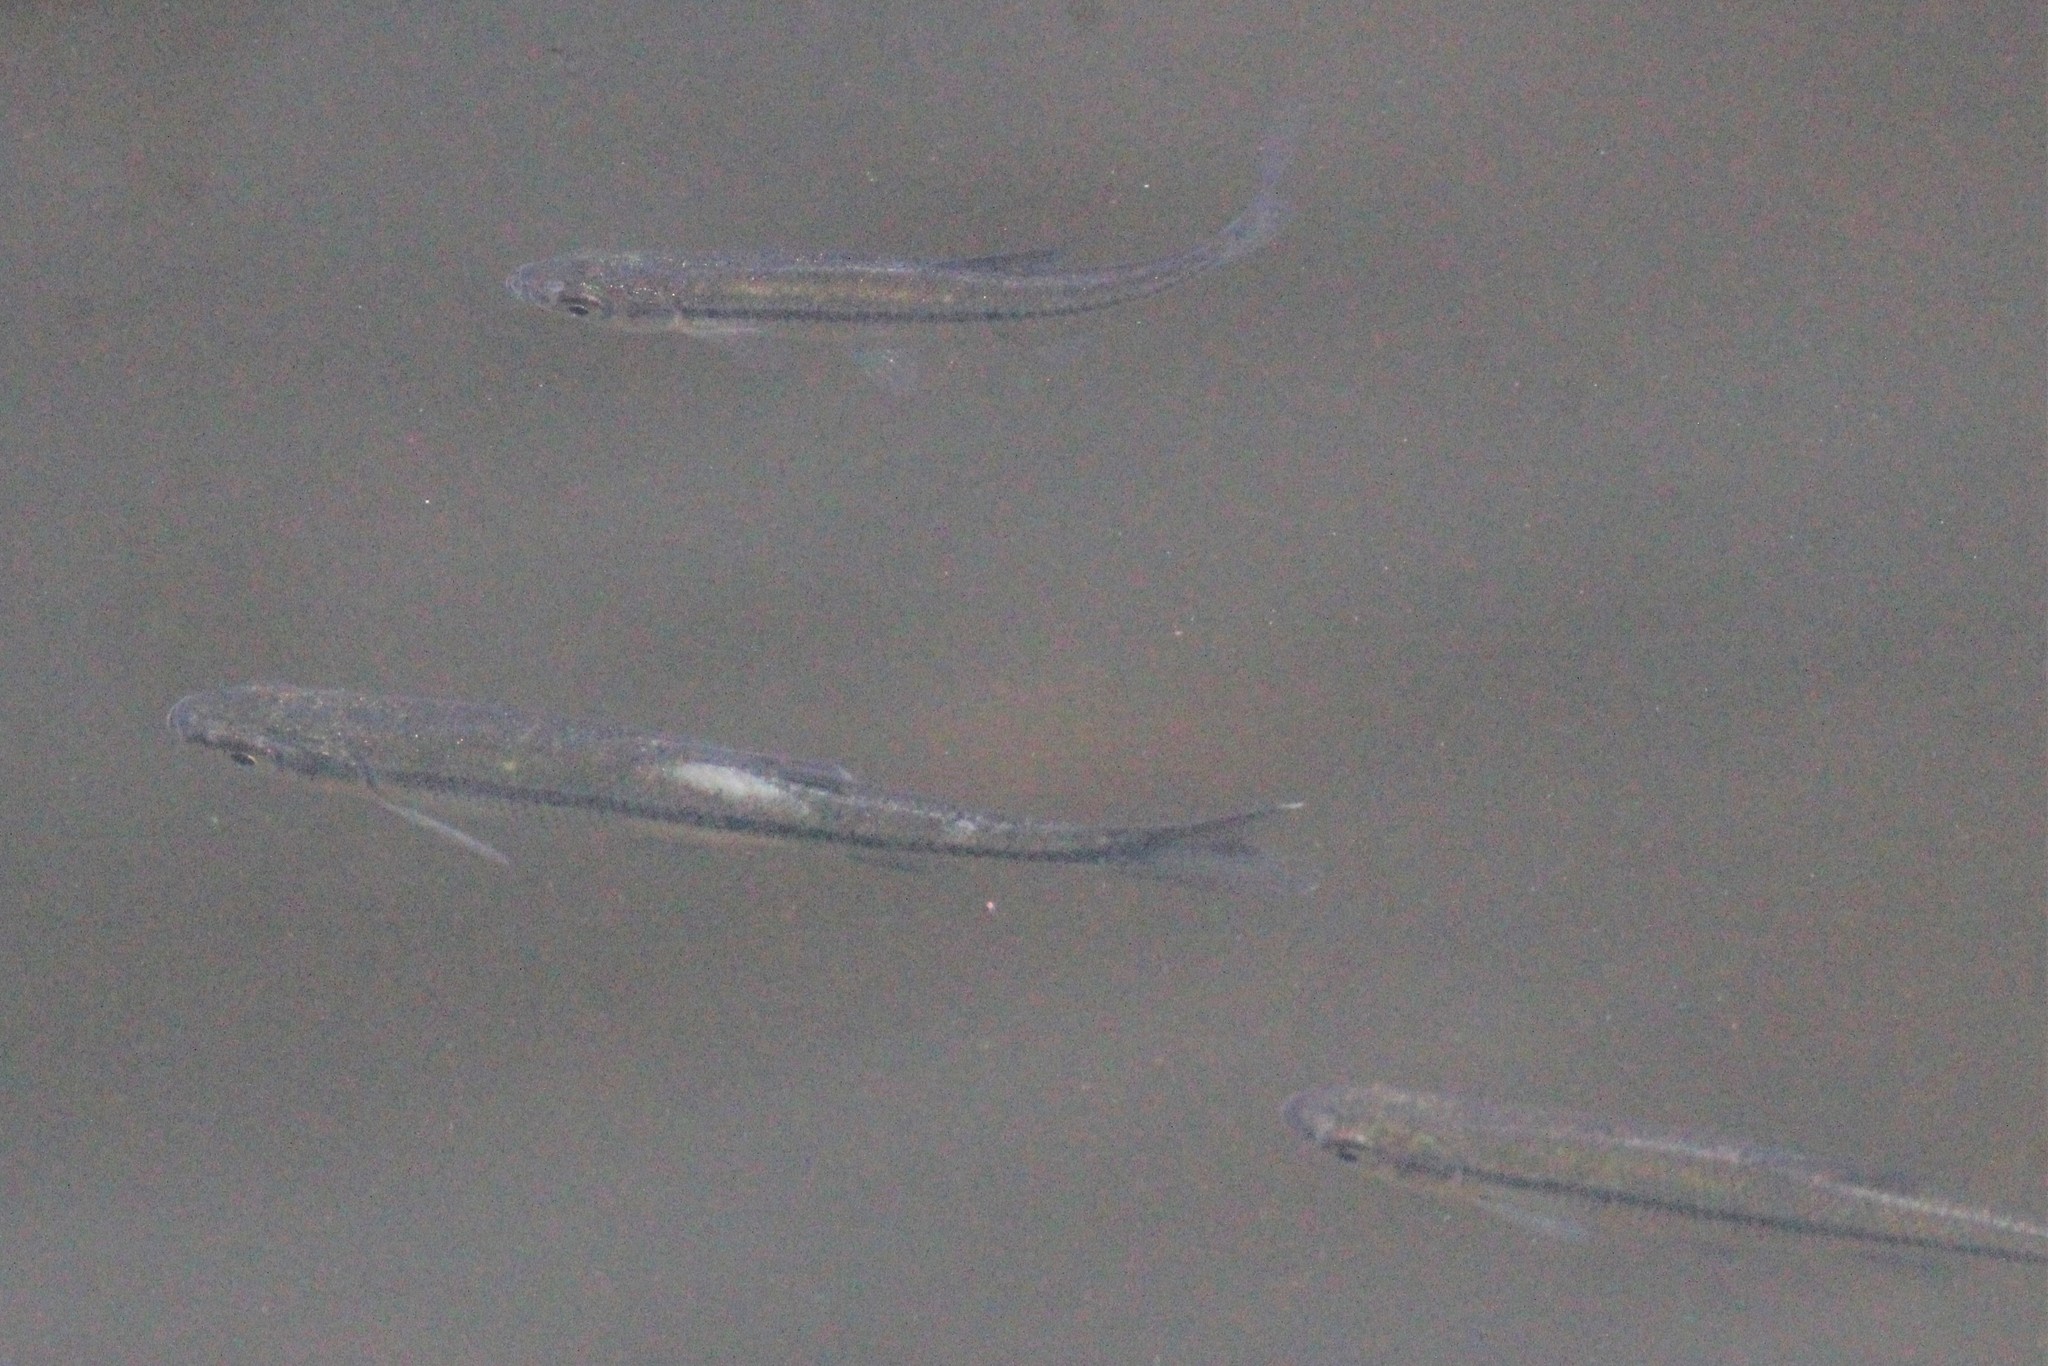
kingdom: Animalia
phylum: Chordata
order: Cypriniformes
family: Cyprinidae
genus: Notemigonus
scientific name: Notemigonus crysoleucas
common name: Golden shiner
